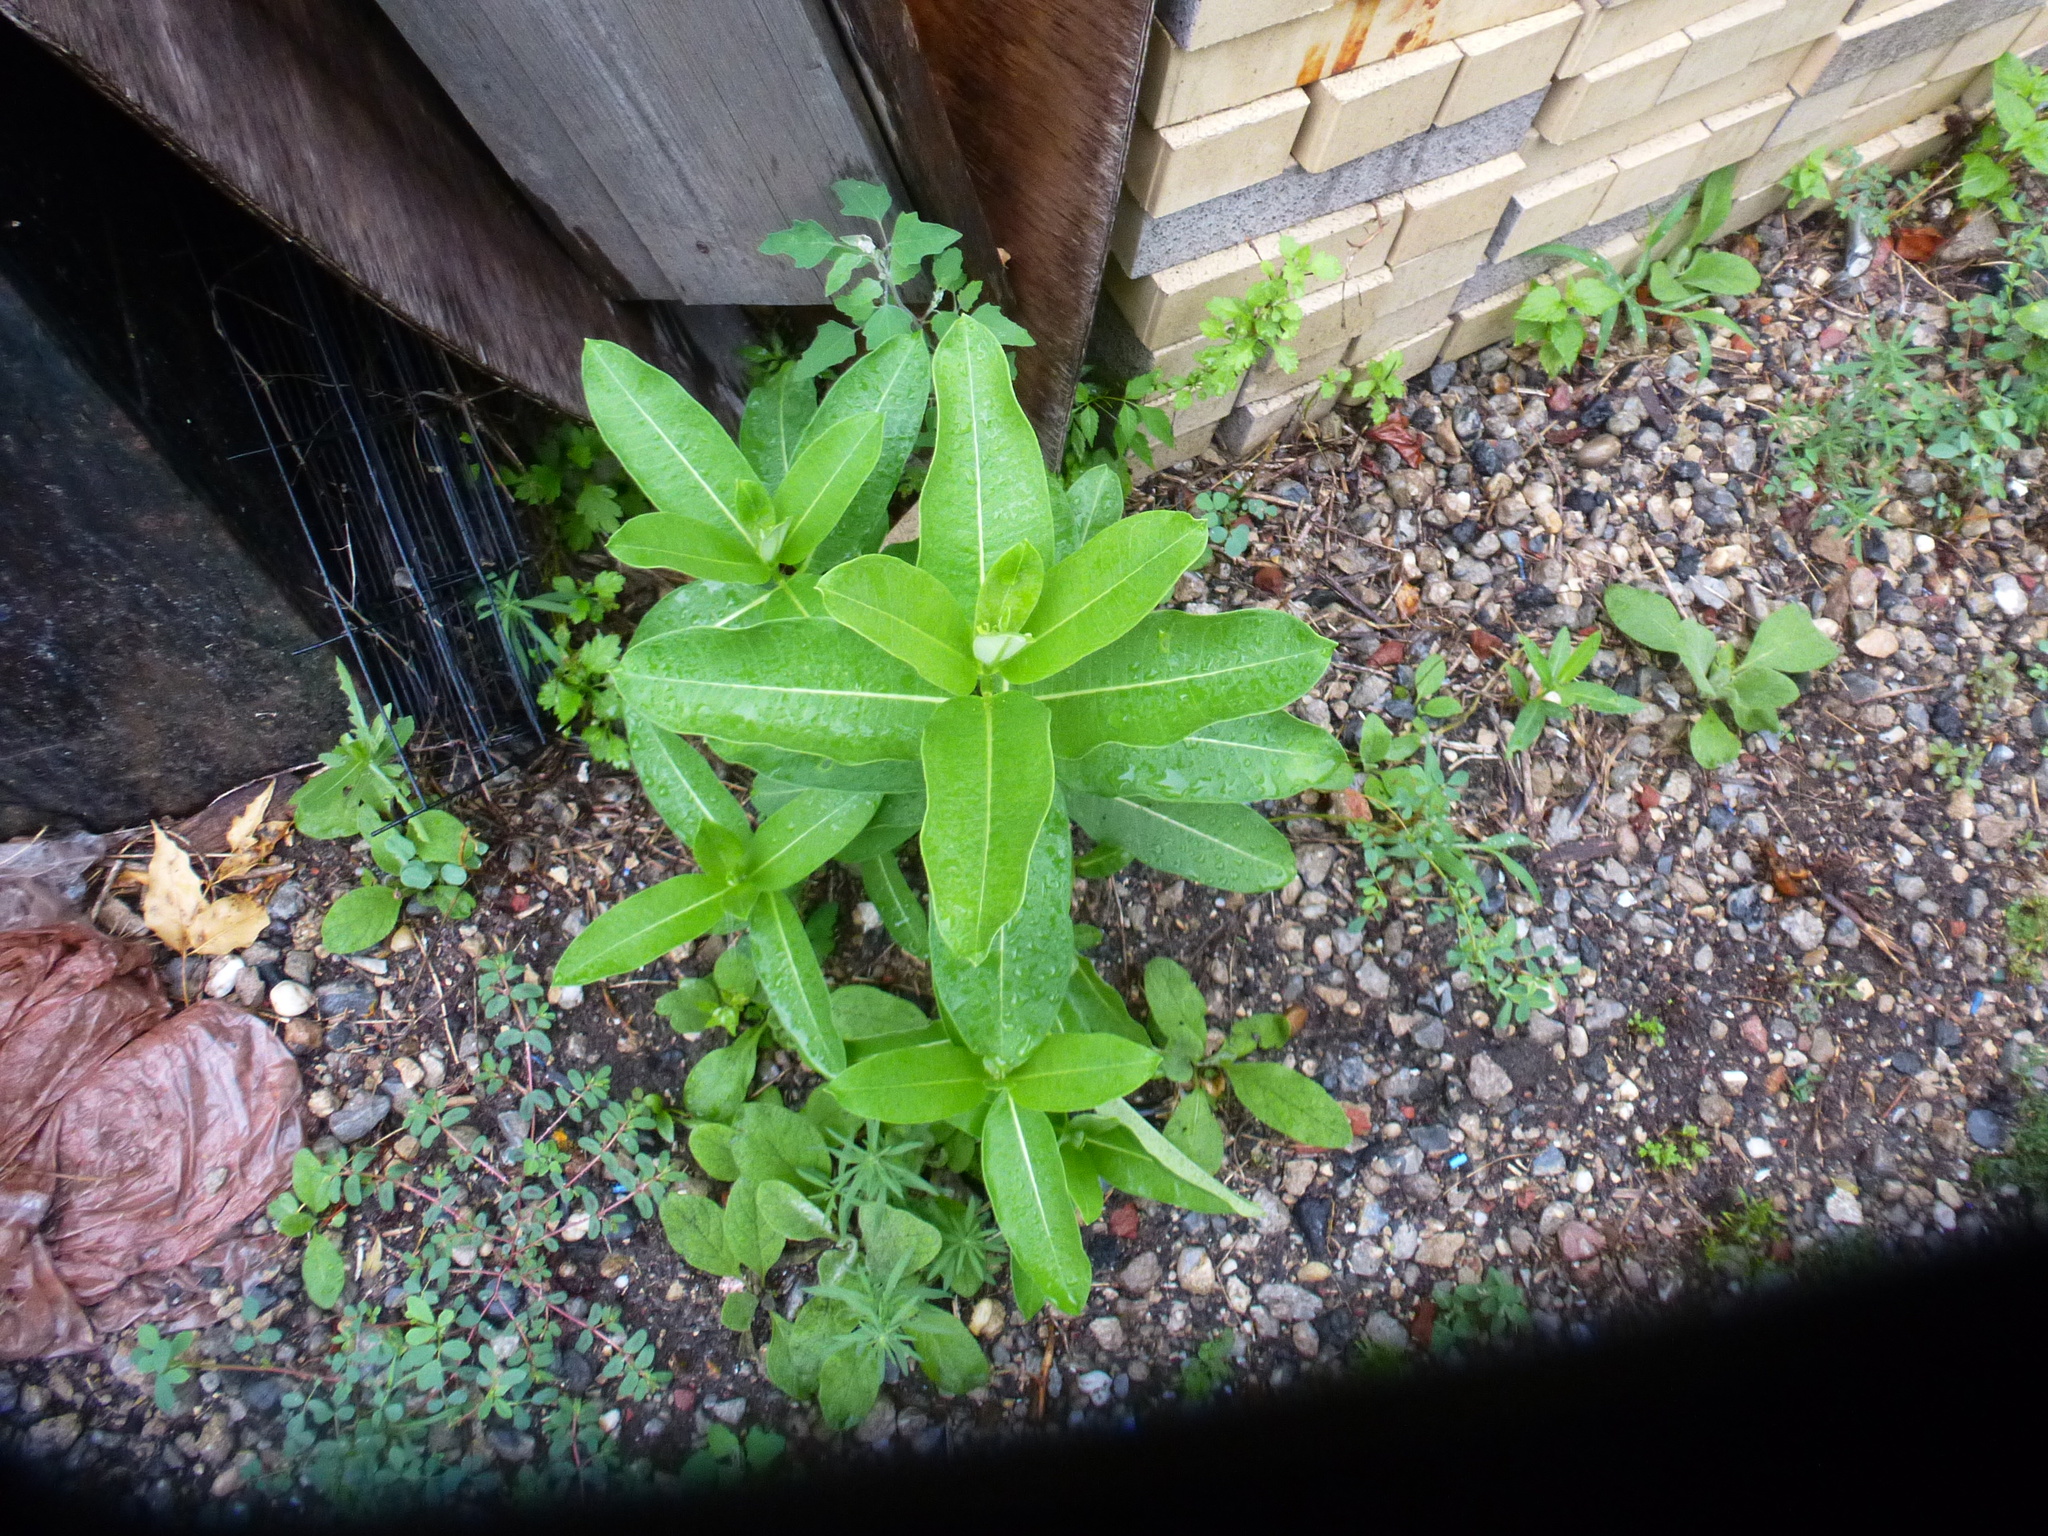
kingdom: Plantae
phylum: Tracheophyta
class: Magnoliopsida
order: Gentianales
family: Apocynaceae
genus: Asclepias
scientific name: Asclepias syriaca
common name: Common milkweed
